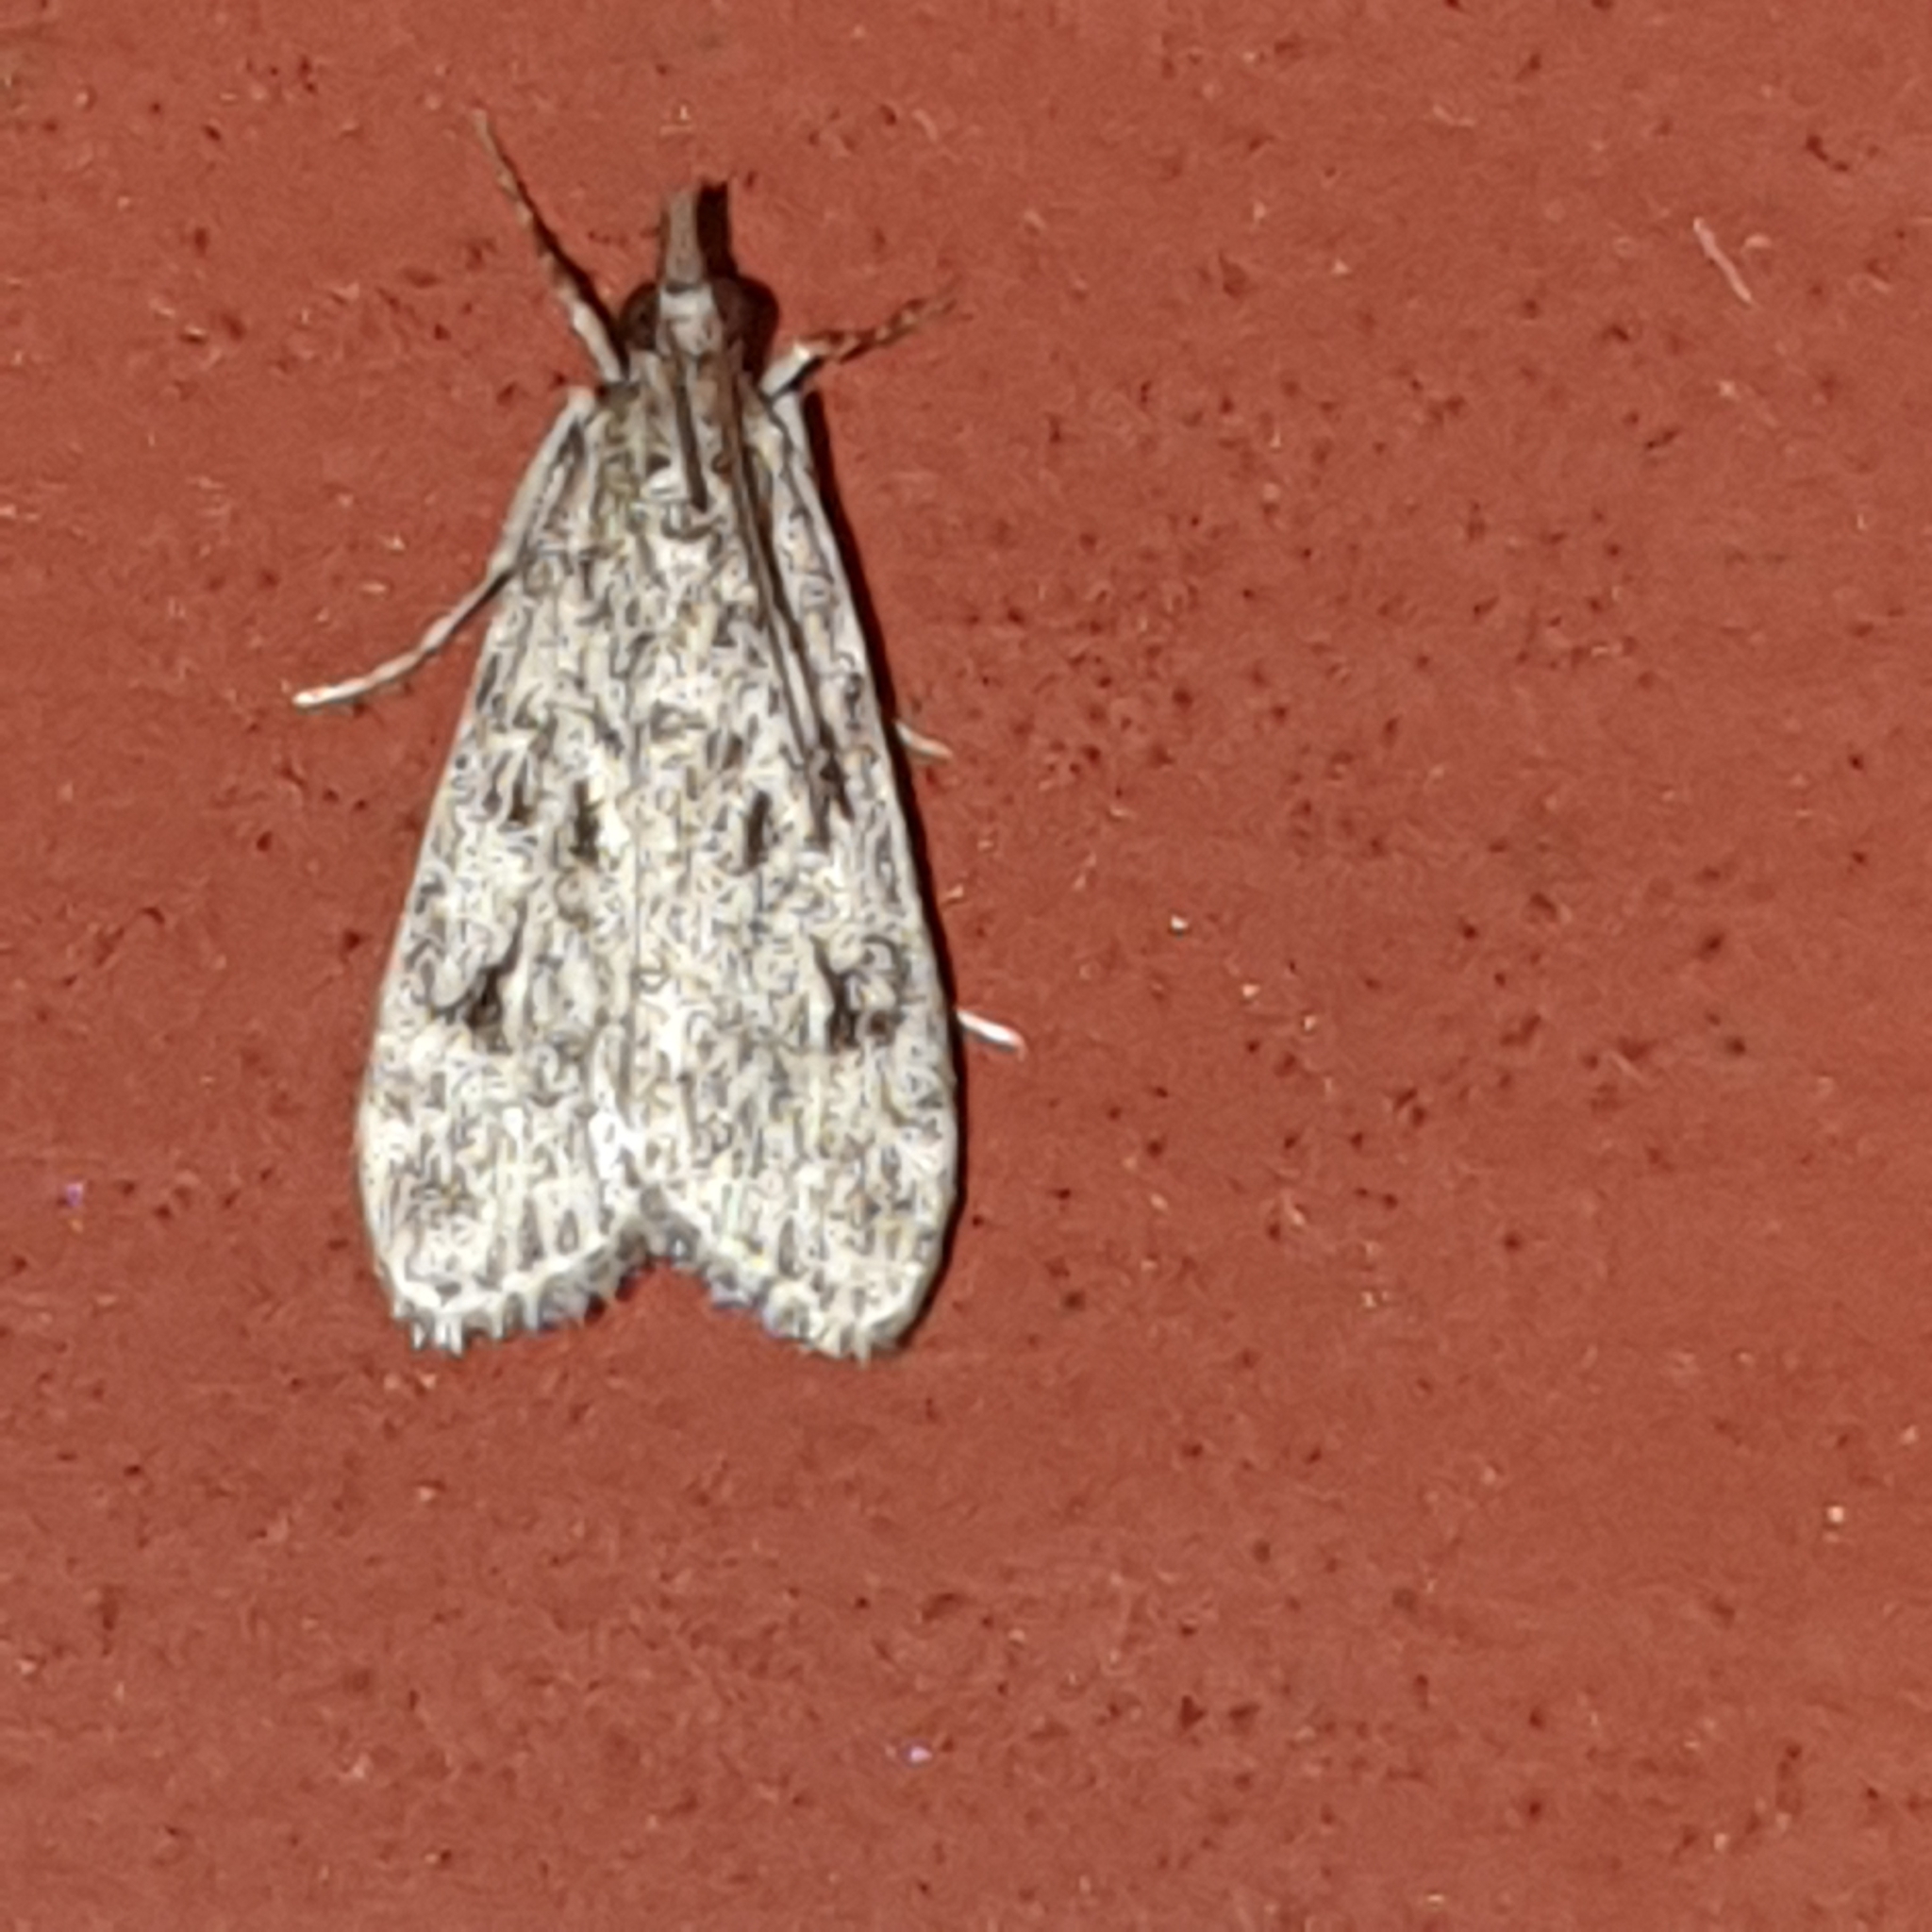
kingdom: Animalia
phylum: Arthropoda
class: Insecta
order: Lepidoptera
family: Crambidae
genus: Eudonia
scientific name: Eudonia truncicolella
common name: Ground-moss grey
